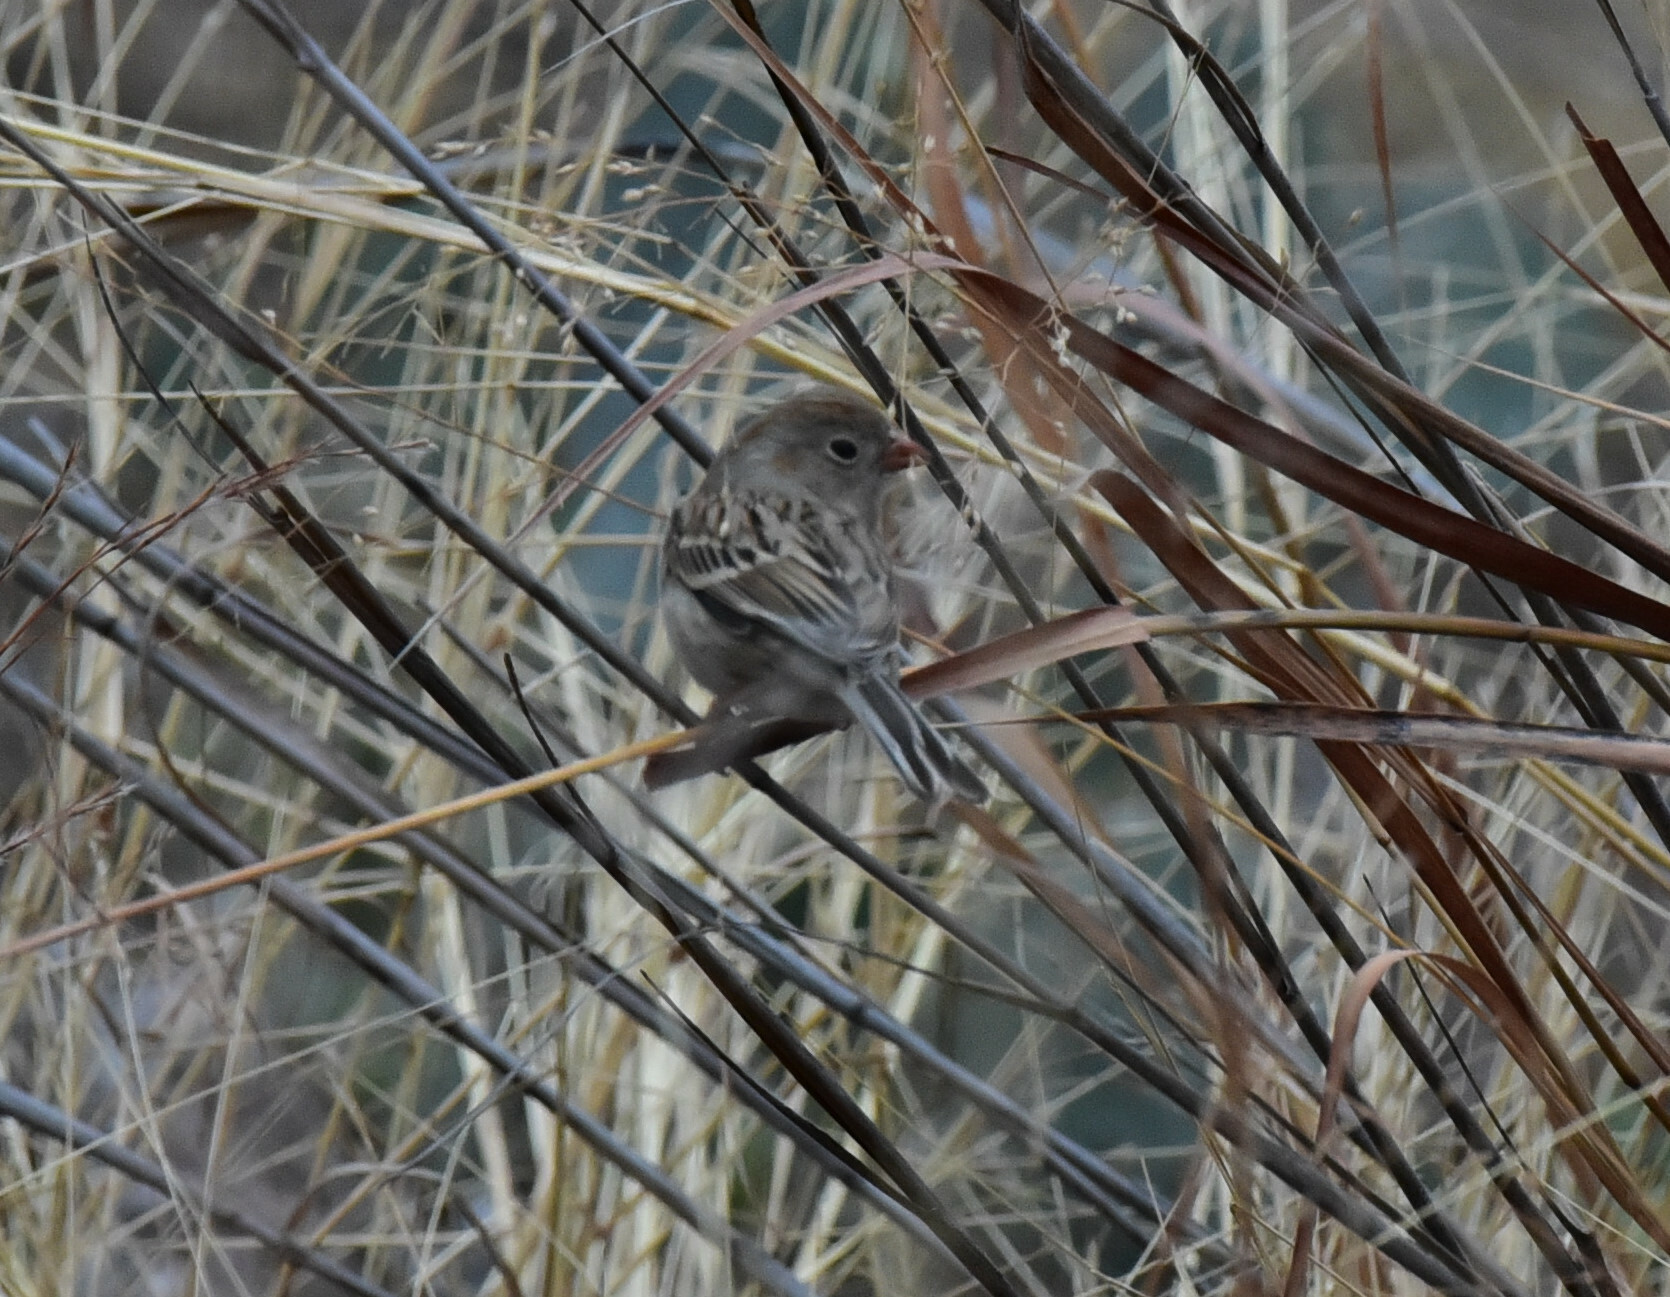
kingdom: Animalia
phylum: Chordata
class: Aves
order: Passeriformes
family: Passerellidae
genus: Spizella
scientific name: Spizella pusilla
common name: Field sparrow
